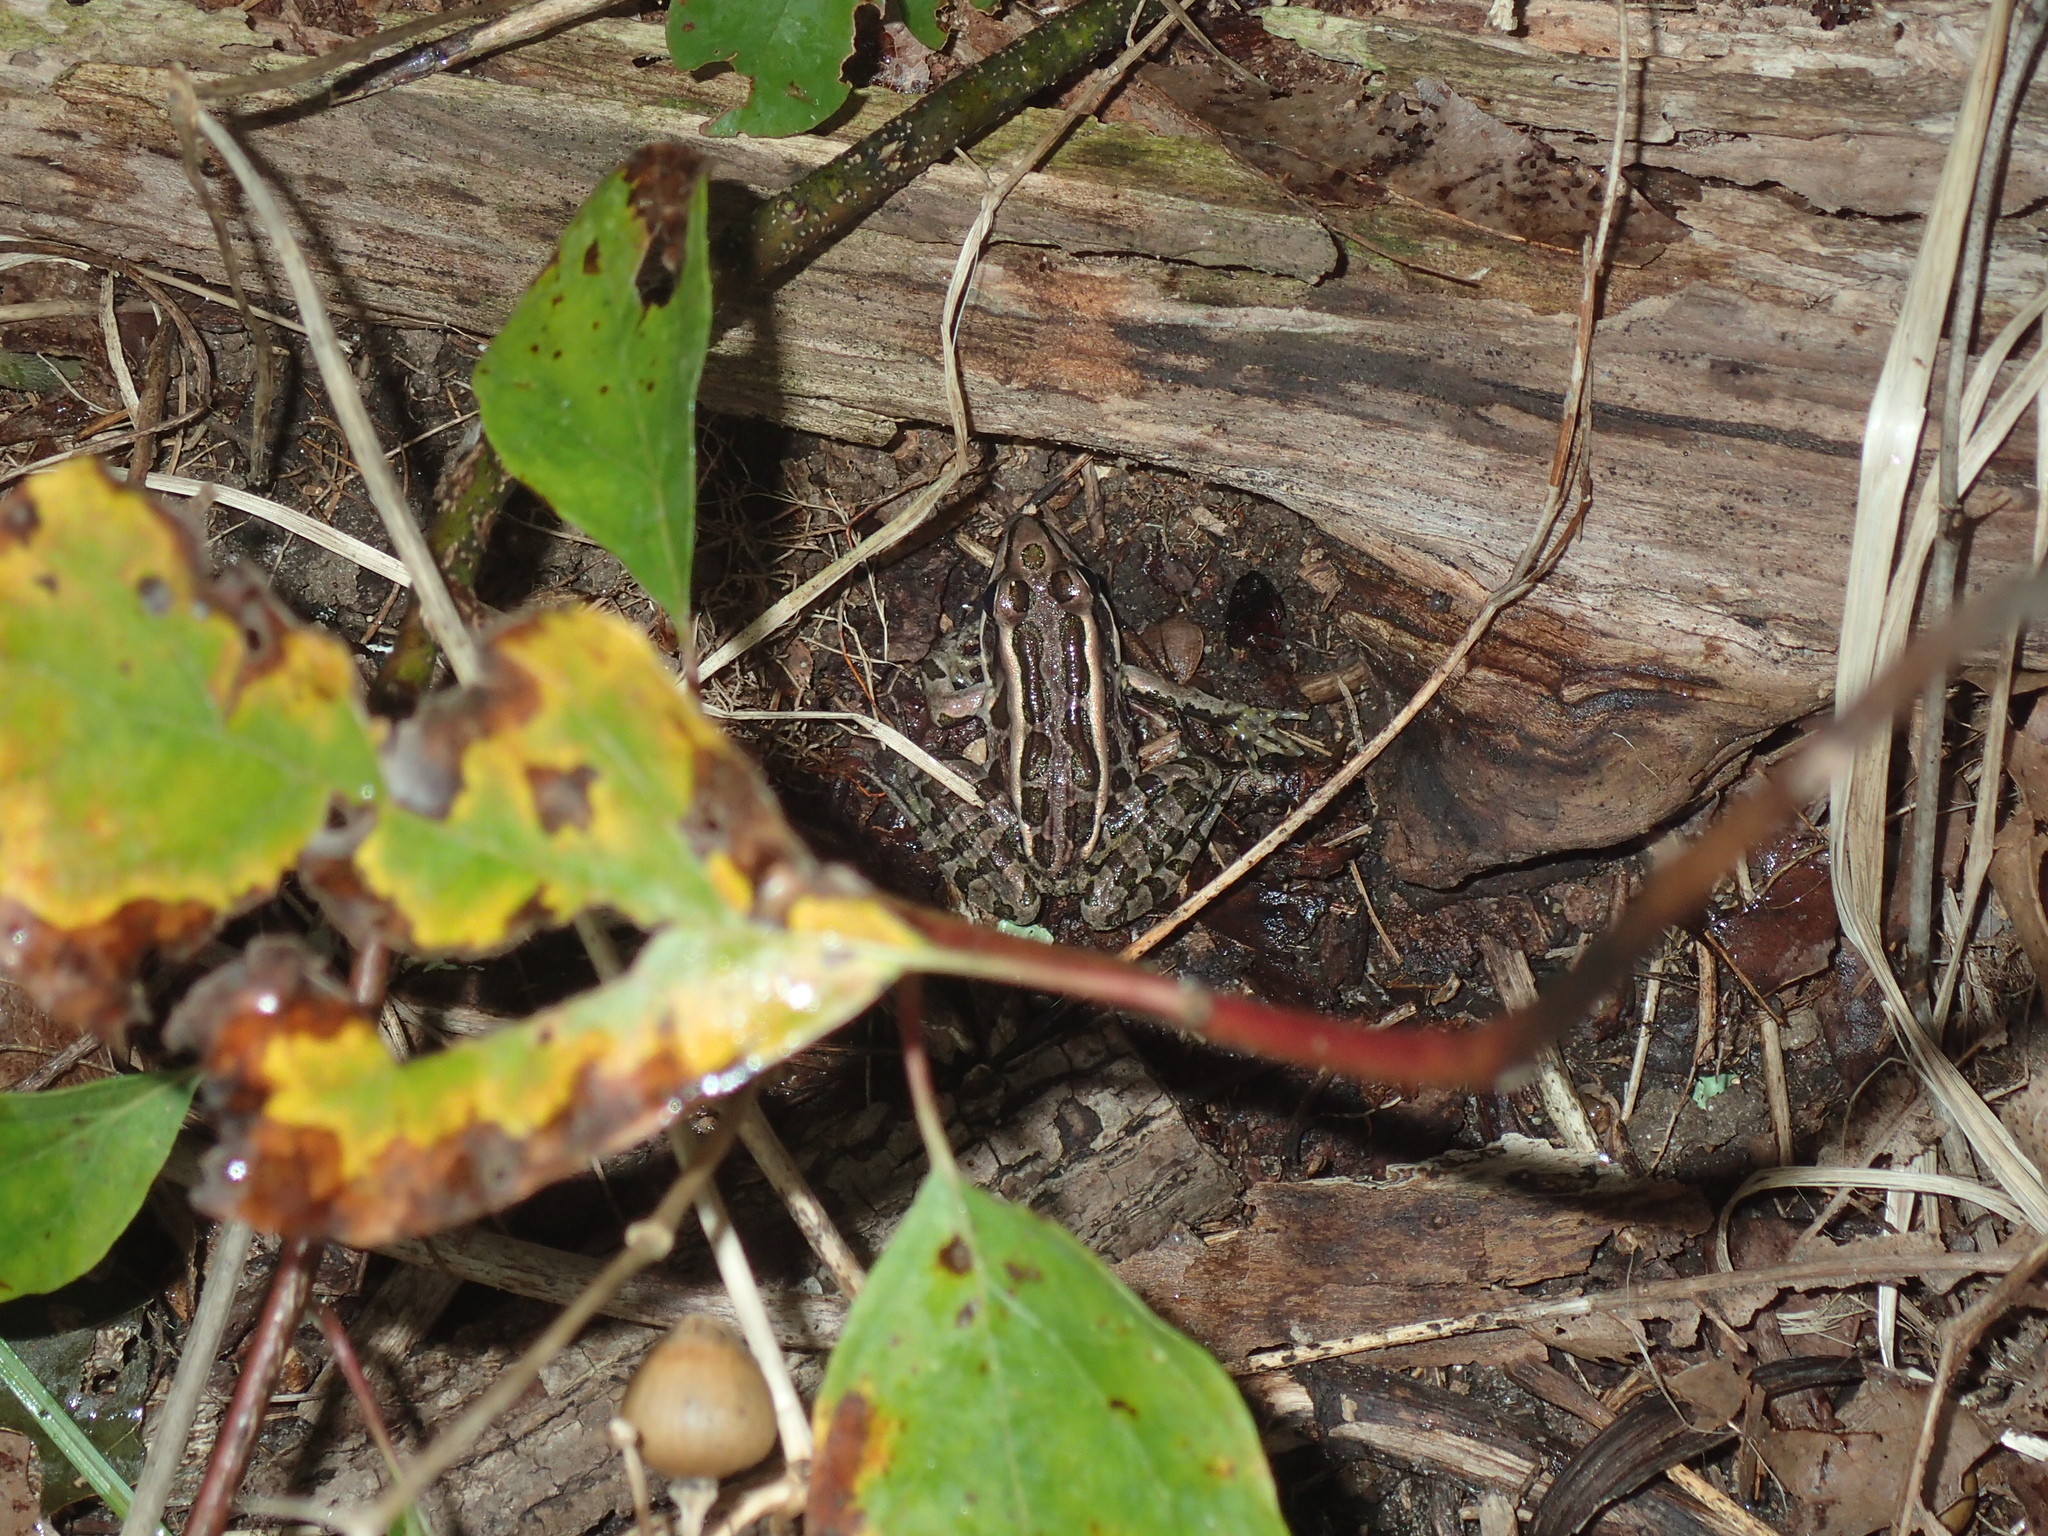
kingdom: Animalia
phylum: Chordata
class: Amphibia
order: Anura
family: Ranidae
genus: Lithobates
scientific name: Lithobates palustris
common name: Pickerel frog
